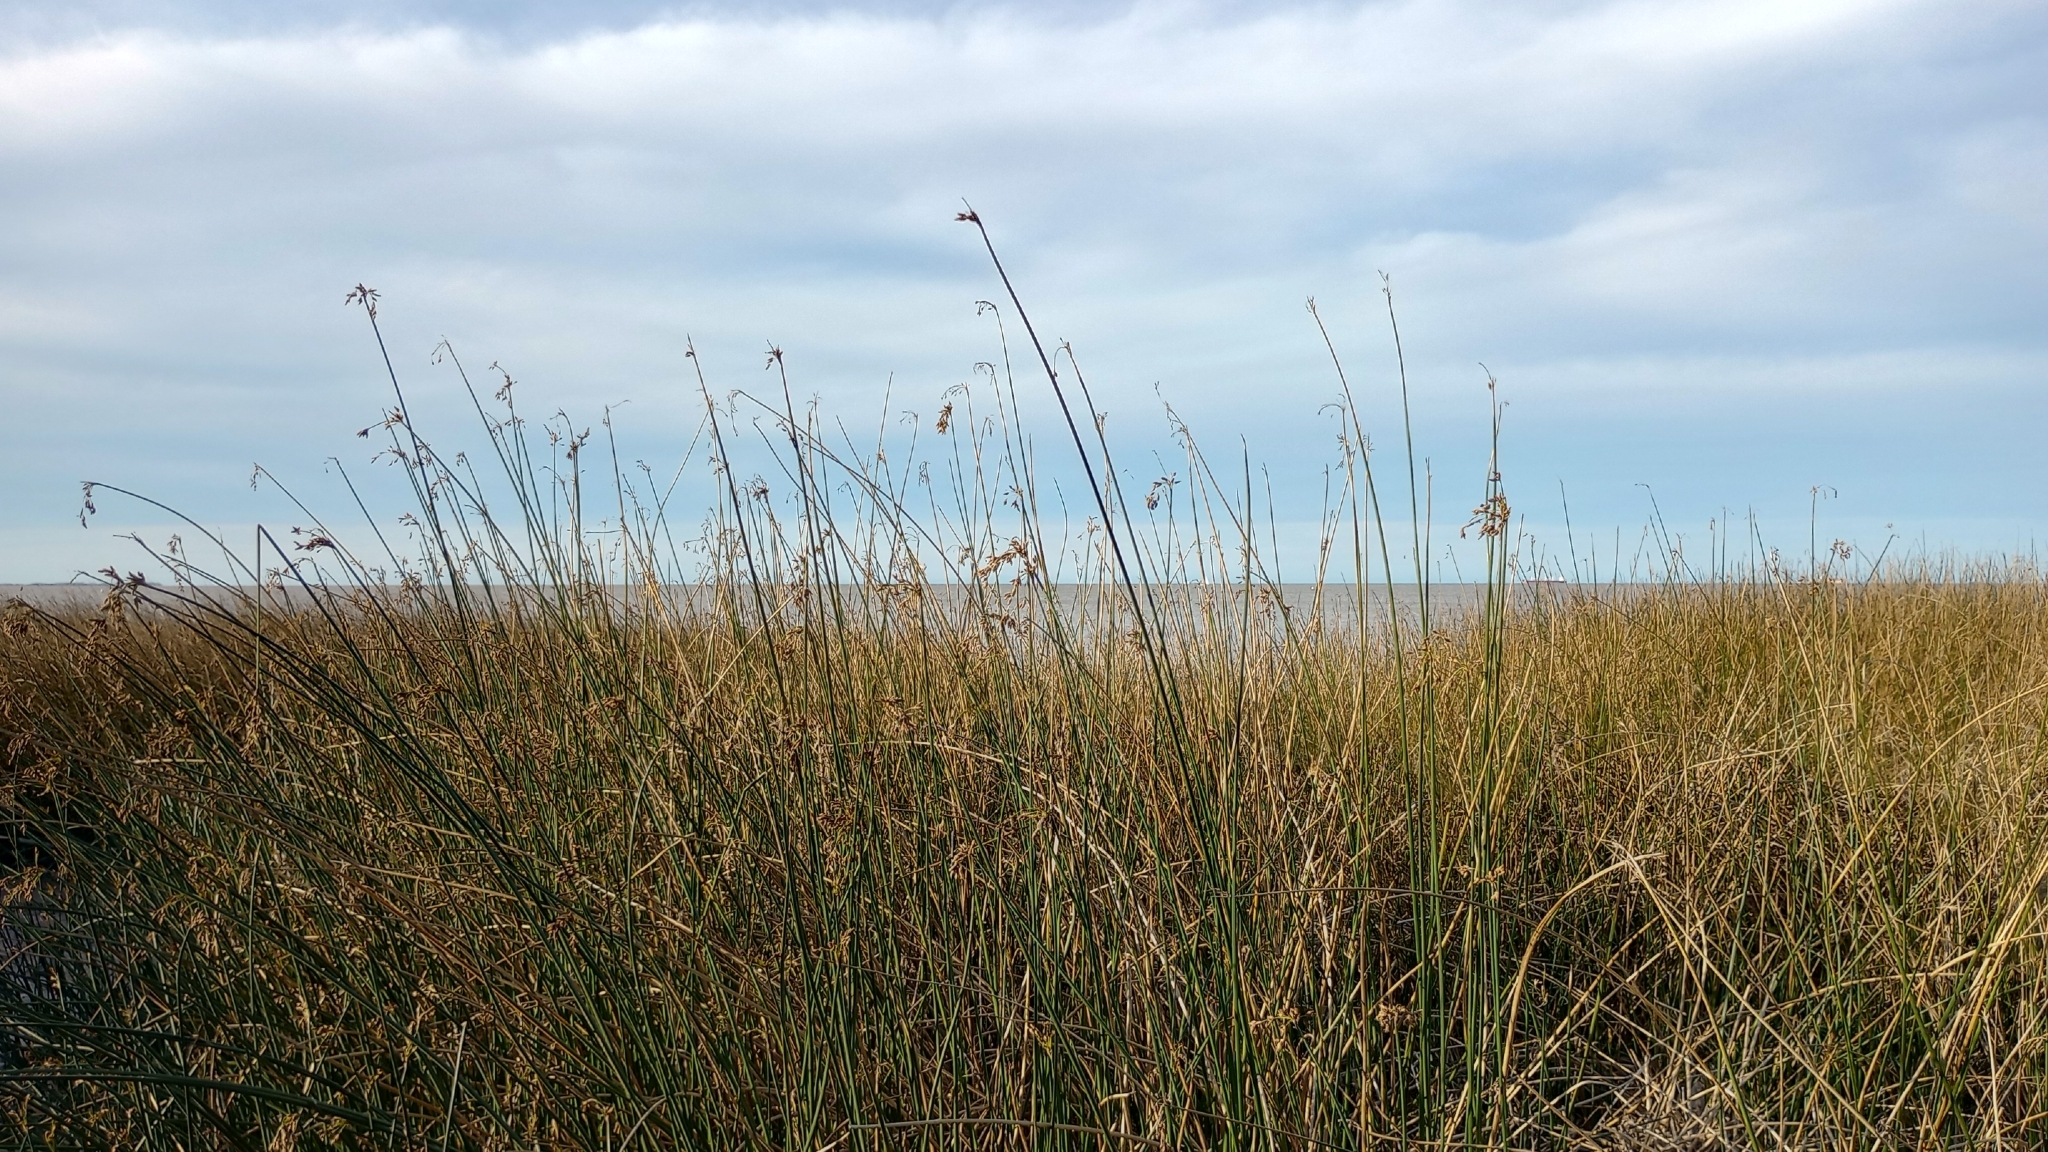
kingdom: Plantae
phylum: Tracheophyta
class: Liliopsida
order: Poales
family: Cyperaceae
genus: Schoenoplectus
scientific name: Schoenoplectus californicus
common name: California bulrush
